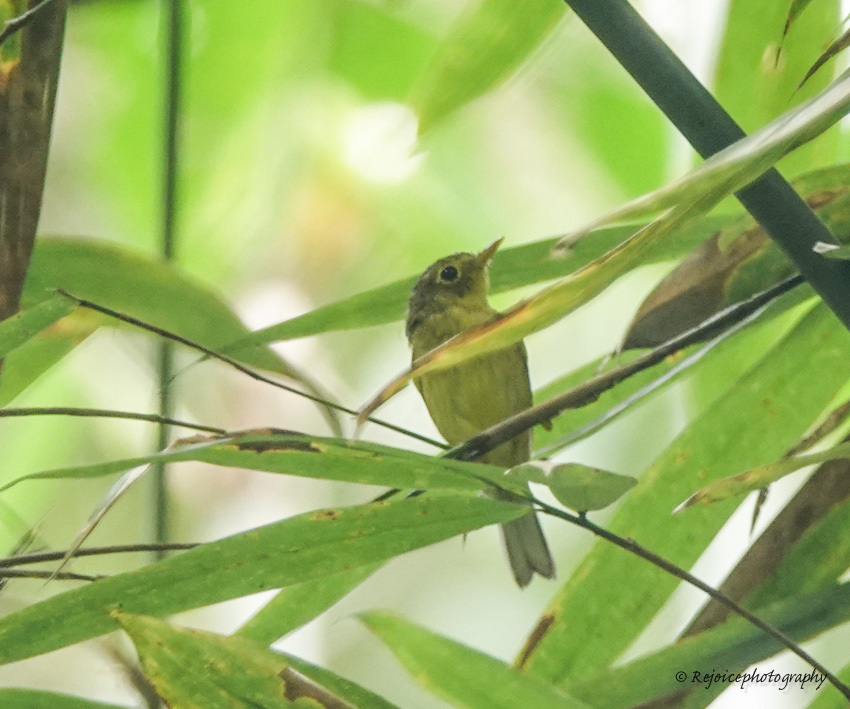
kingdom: Animalia
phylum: Chordata
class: Aves
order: Passeriformes
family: Phylloscopidae
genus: Seicercus
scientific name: Seicercus burkii
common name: Green-crowned warbler
